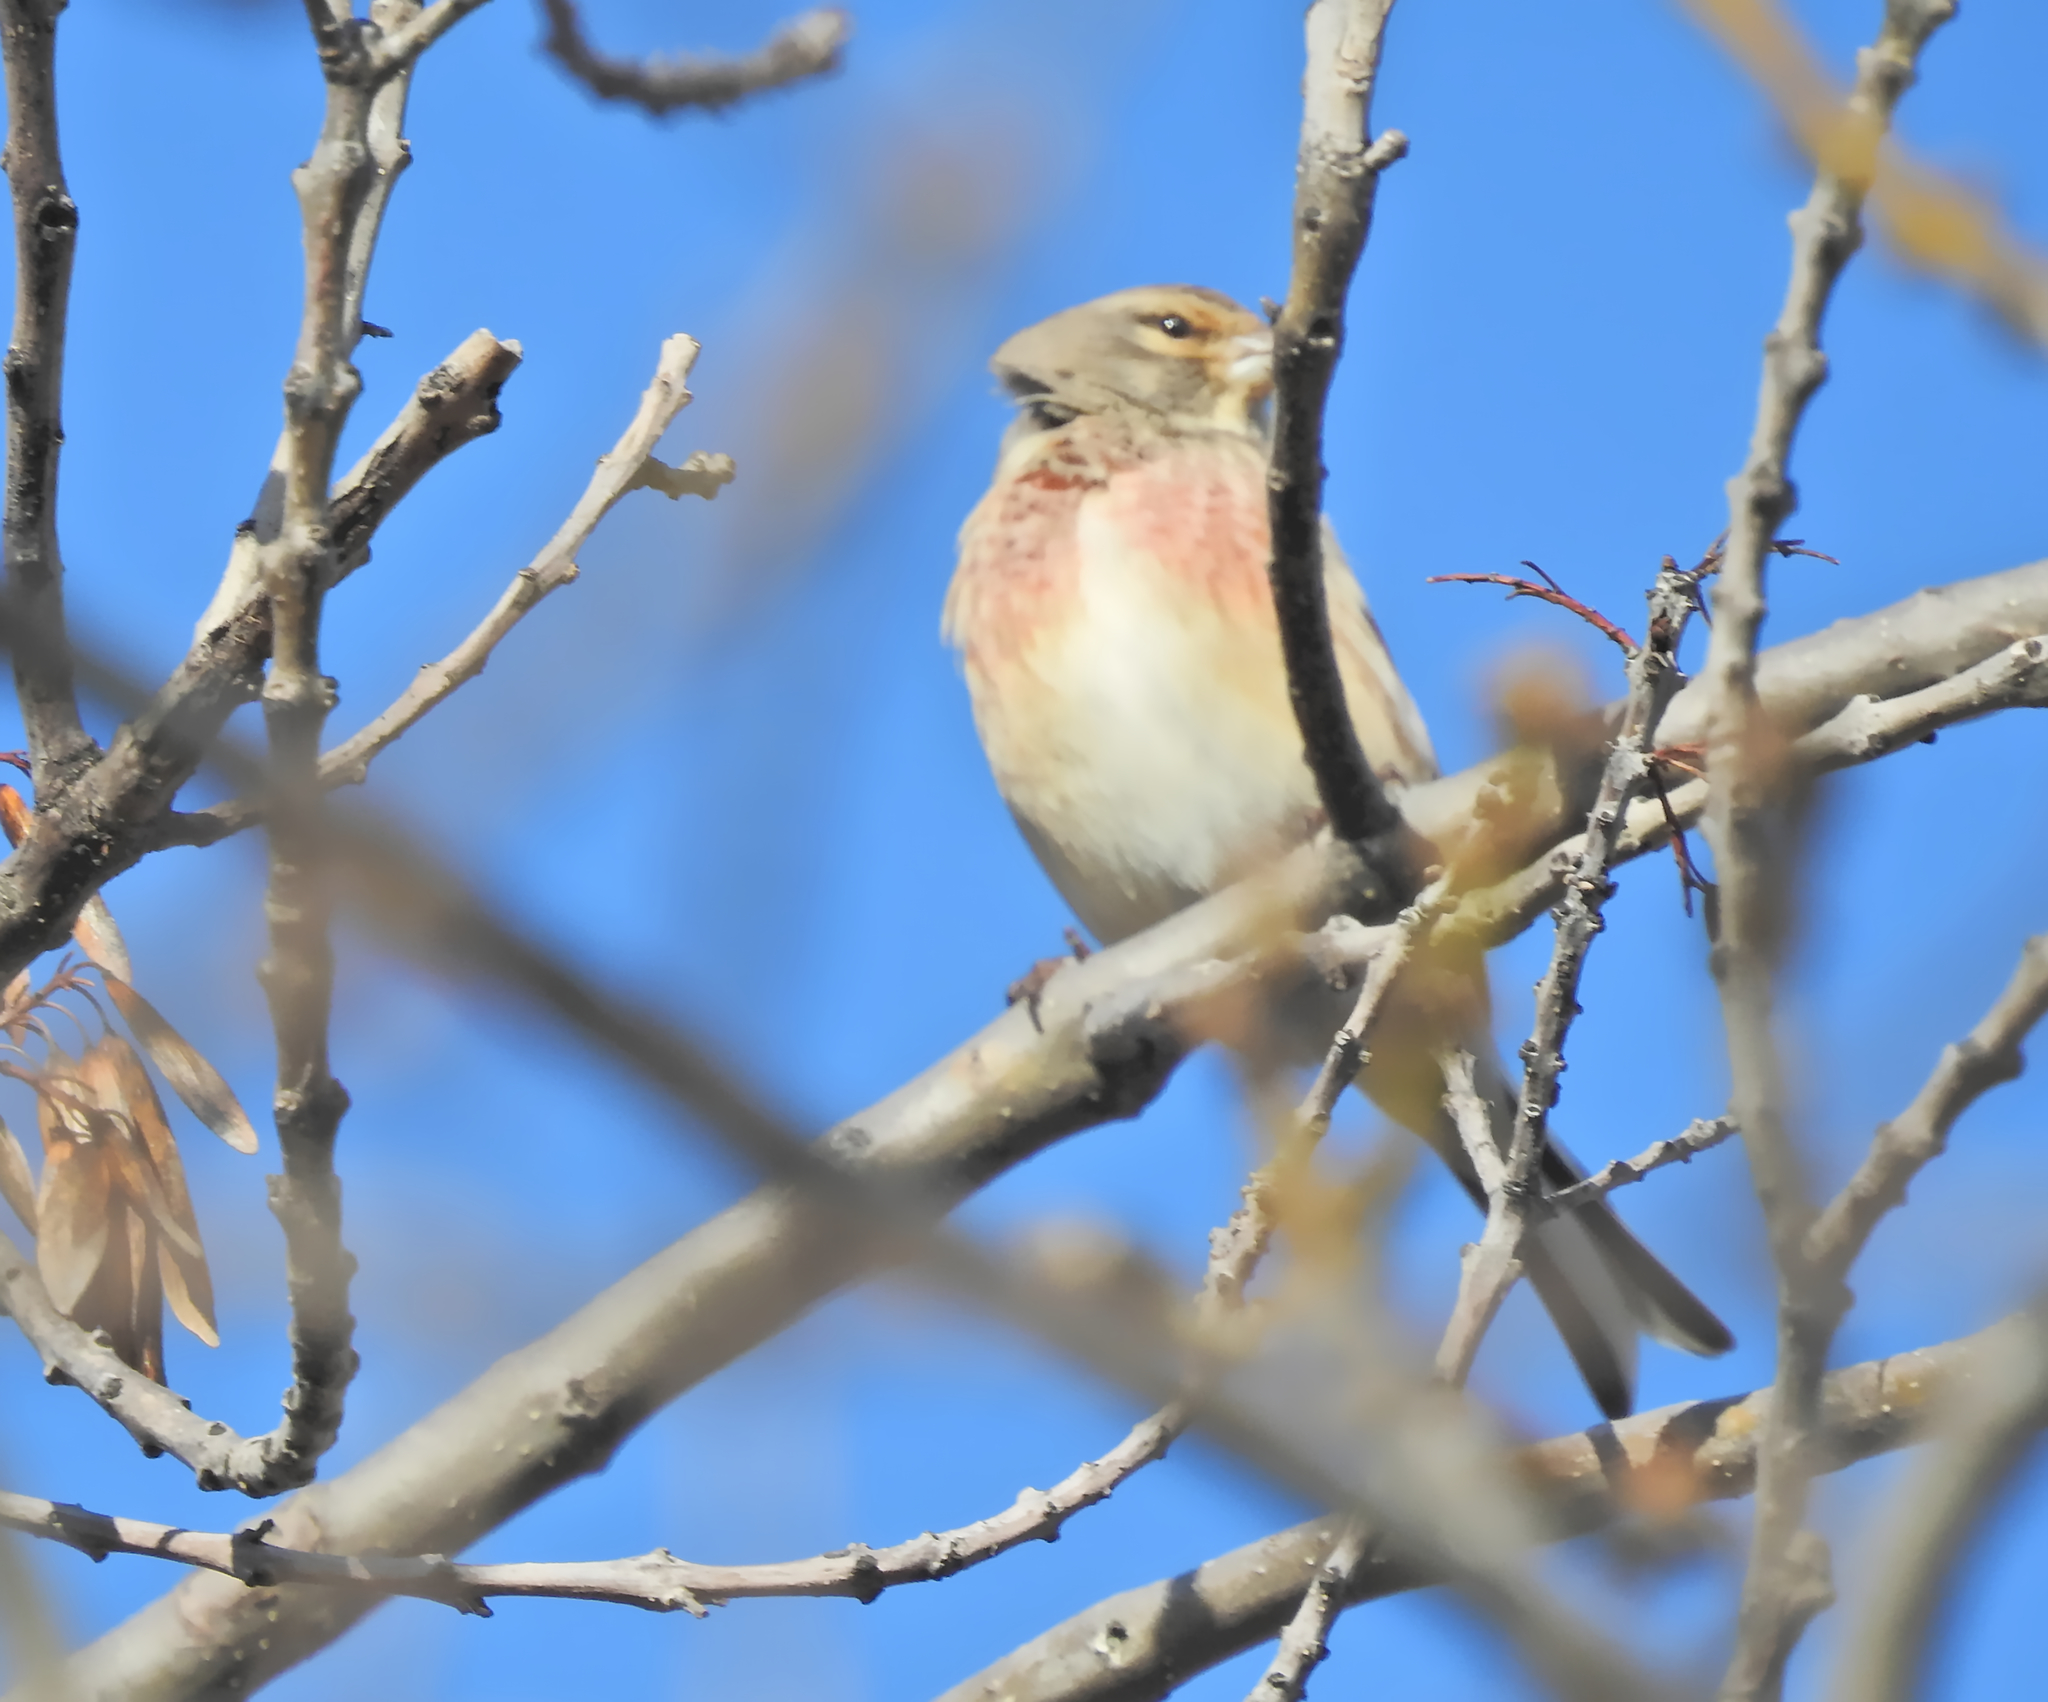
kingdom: Animalia
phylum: Chordata
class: Aves
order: Passeriformes
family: Fringillidae
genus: Linaria
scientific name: Linaria cannabina
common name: Common linnet
